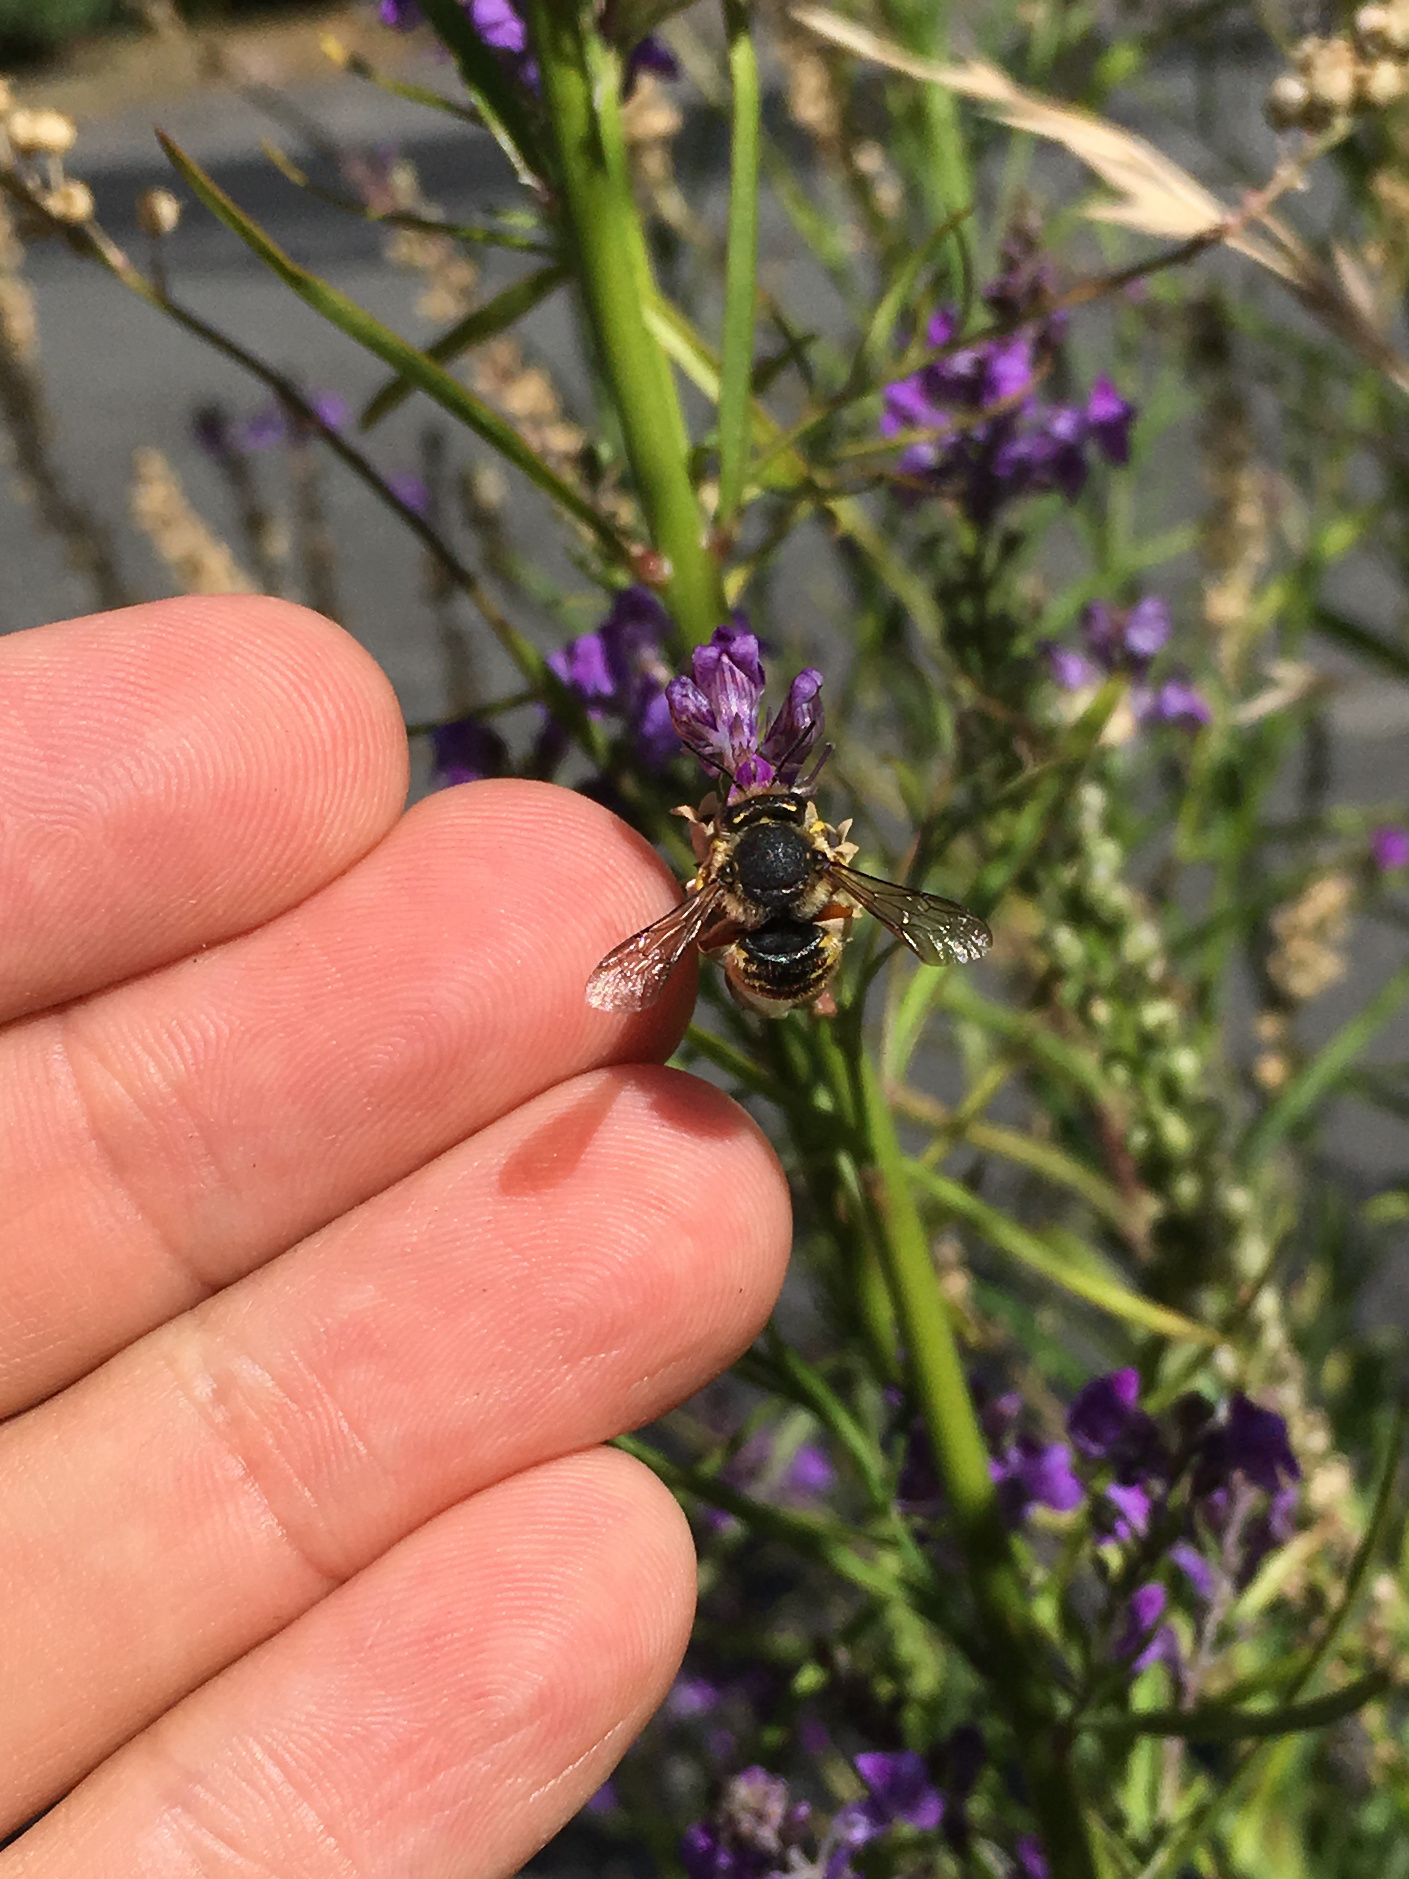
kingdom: Animalia
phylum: Arthropoda
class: Insecta
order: Hymenoptera
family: Megachilidae
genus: Anthidium
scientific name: Anthidium manicatum
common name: Wool carder bee
